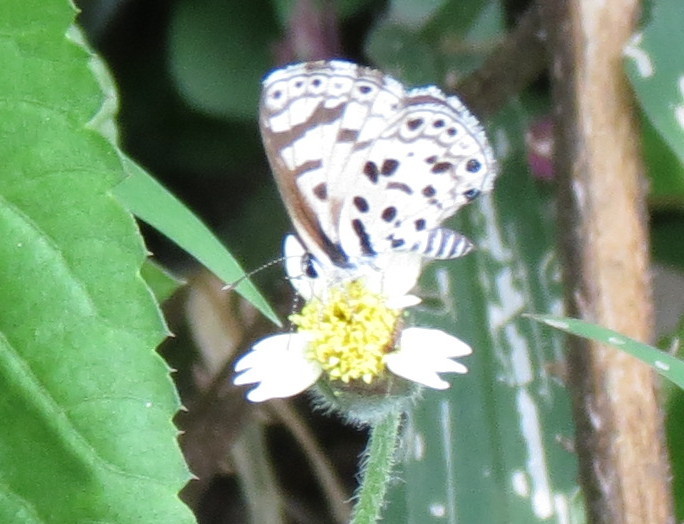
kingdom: Animalia
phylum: Arthropoda
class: Insecta
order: Lepidoptera
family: Lycaenidae
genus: Azanus
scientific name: Azanus natalensis
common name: Natal babul blue
